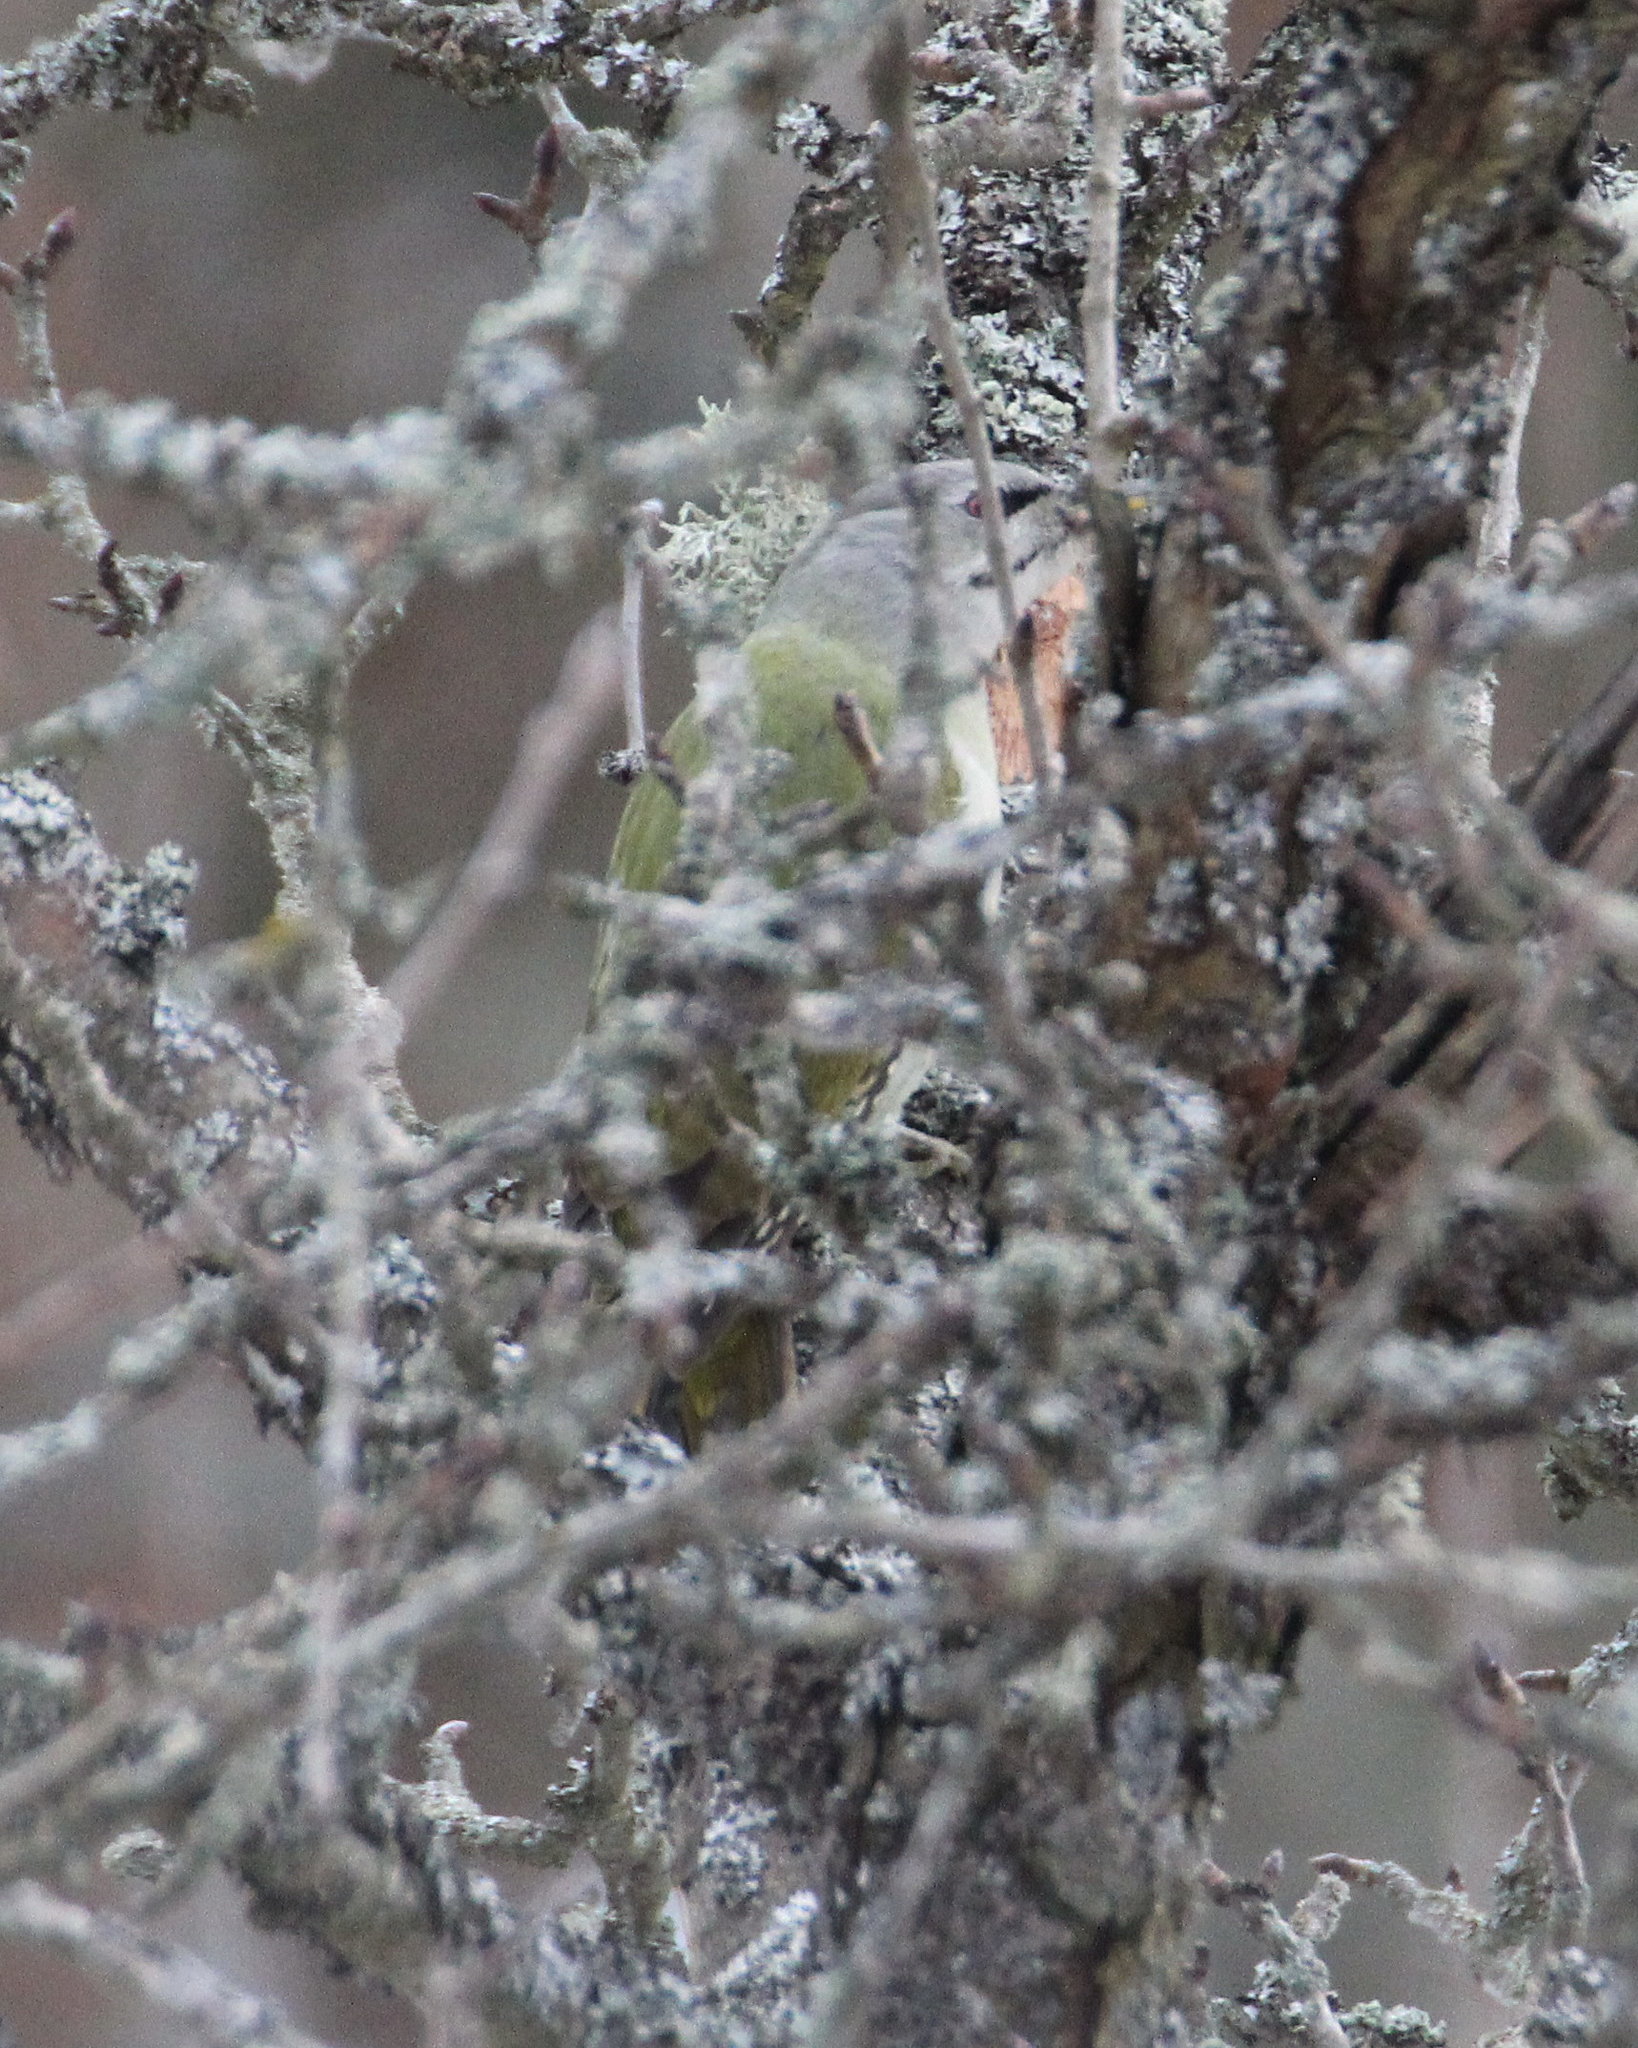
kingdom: Animalia
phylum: Chordata
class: Aves
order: Piciformes
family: Picidae
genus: Picus
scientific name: Picus canus
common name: Grey-headed woodpecker
